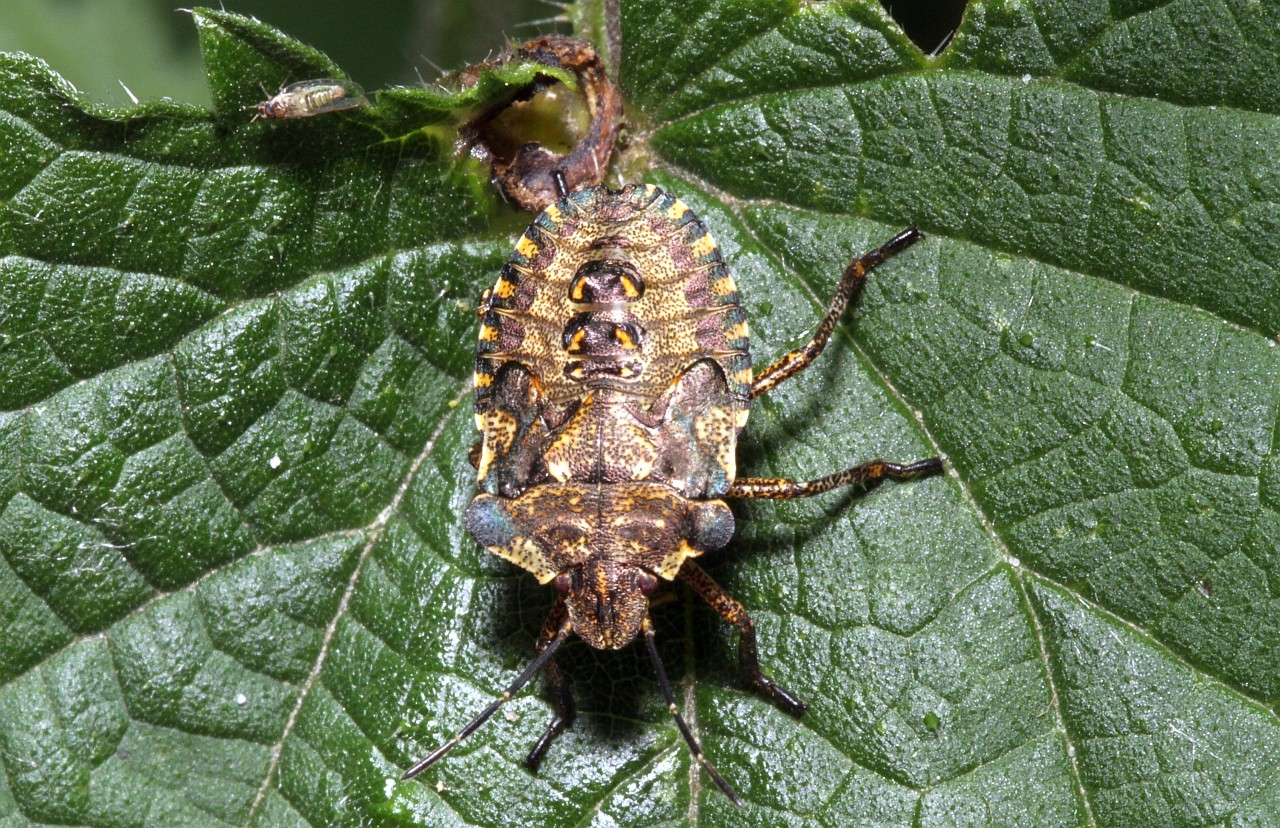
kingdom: Animalia
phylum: Arthropoda
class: Insecta
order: Hemiptera
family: Pentatomidae
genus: Pentatoma
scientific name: Pentatoma rufipes
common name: Forest bug
